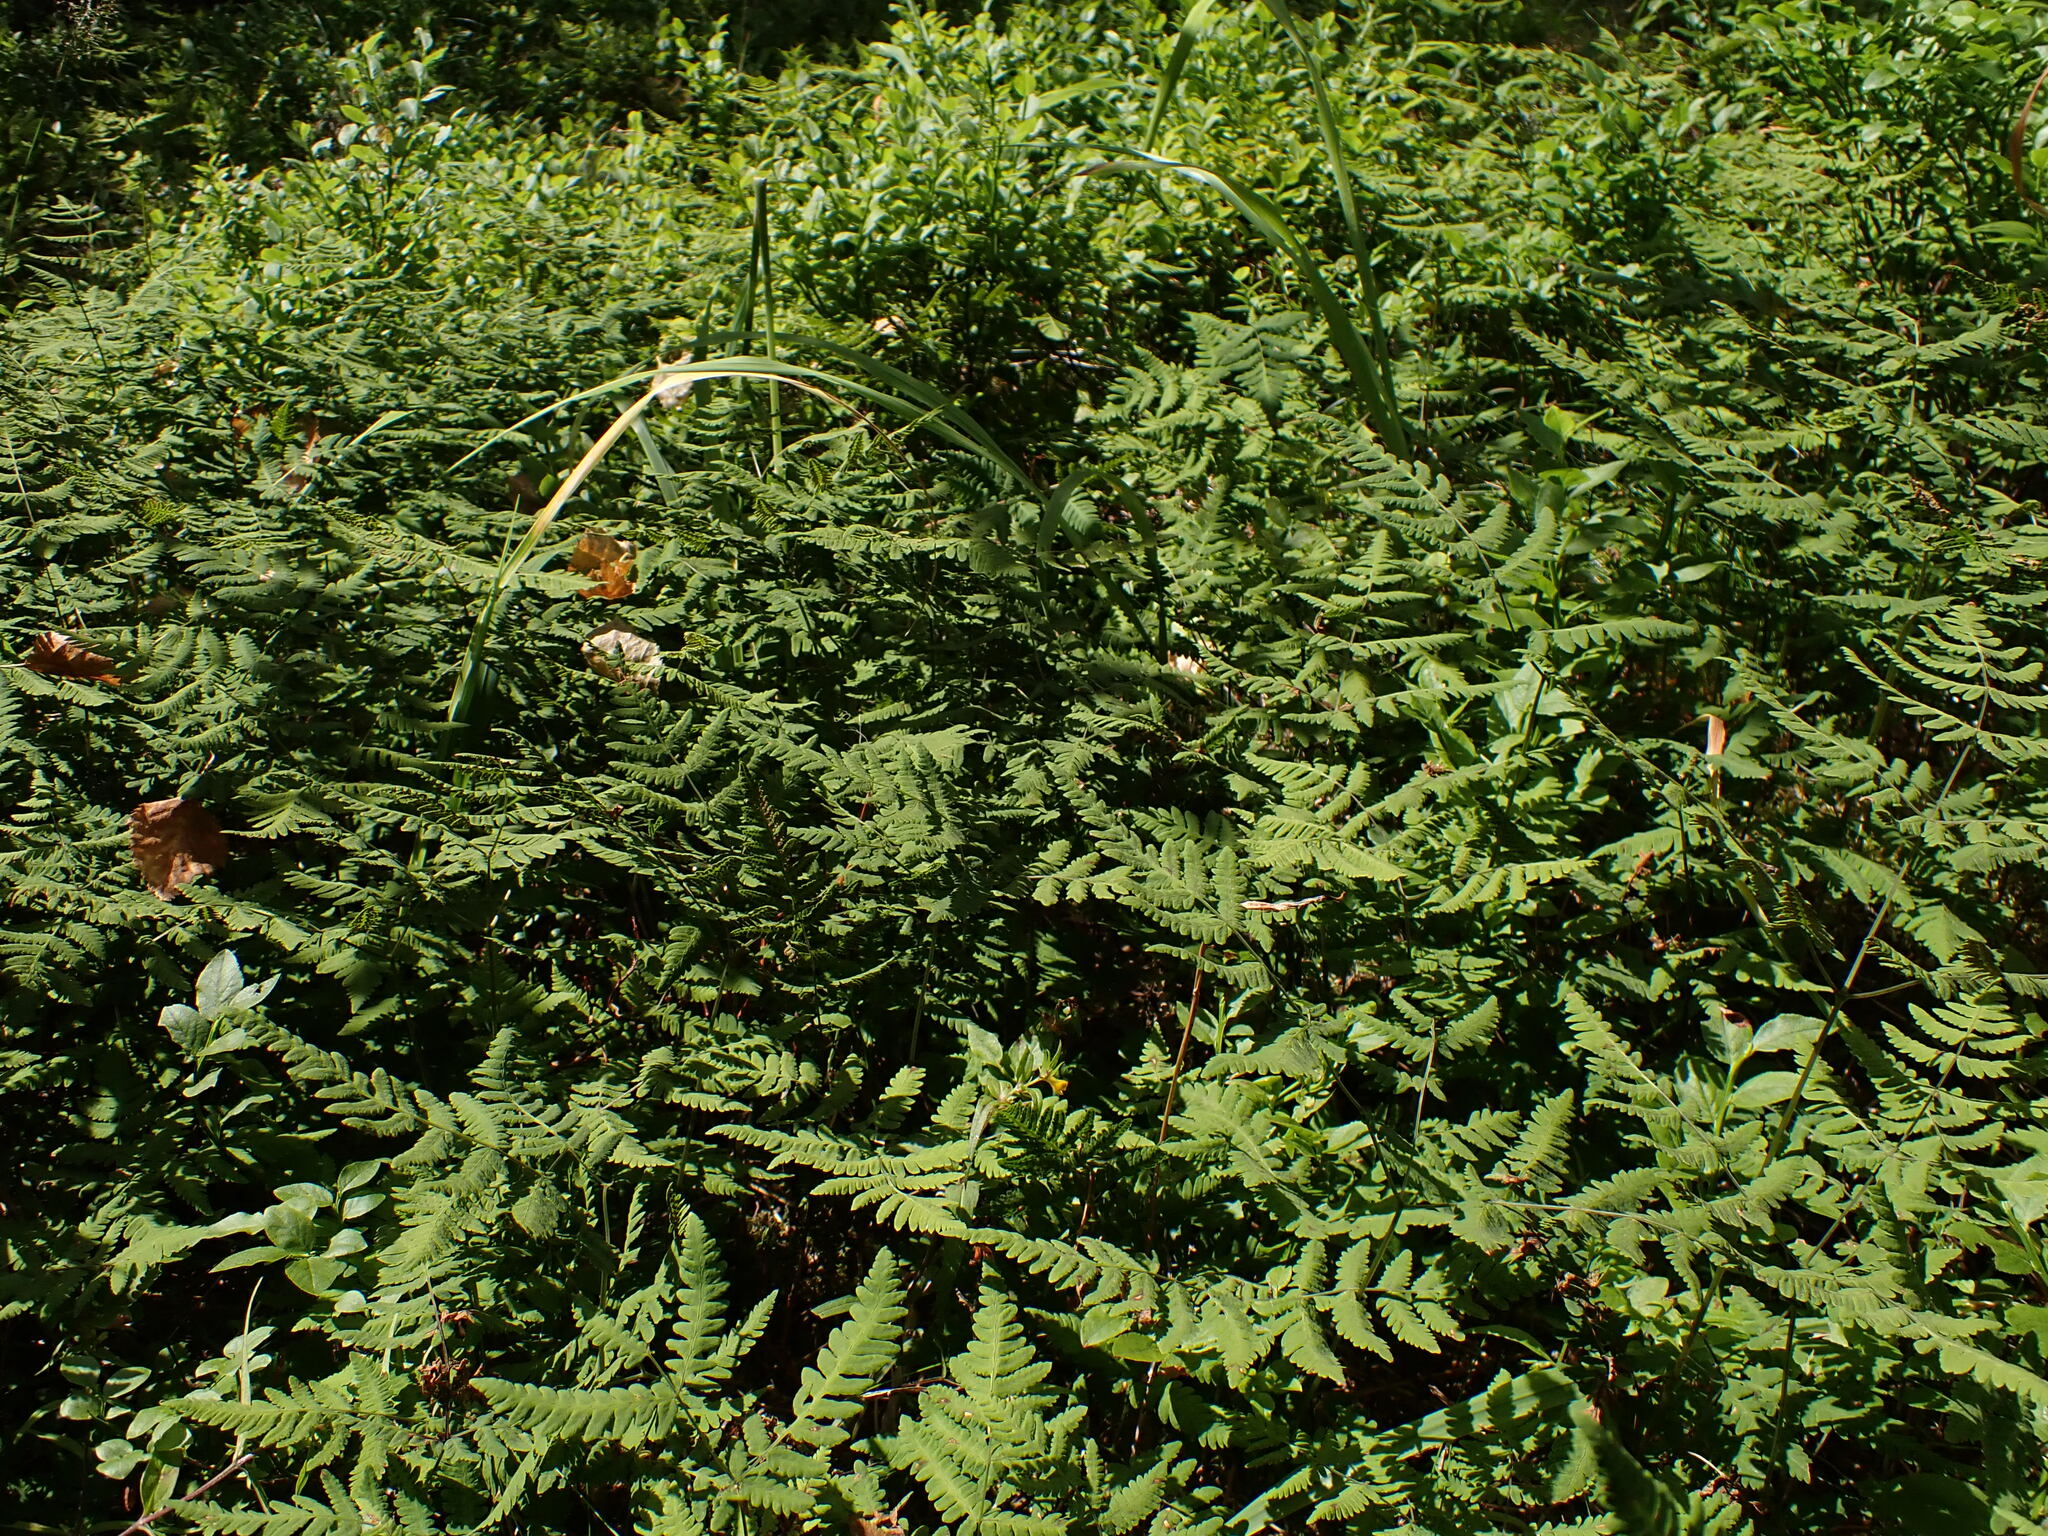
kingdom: Plantae
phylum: Tracheophyta
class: Polypodiopsida
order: Polypodiales
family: Cystopteridaceae
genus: Gymnocarpium
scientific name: Gymnocarpium dryopteris
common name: Oak fern
